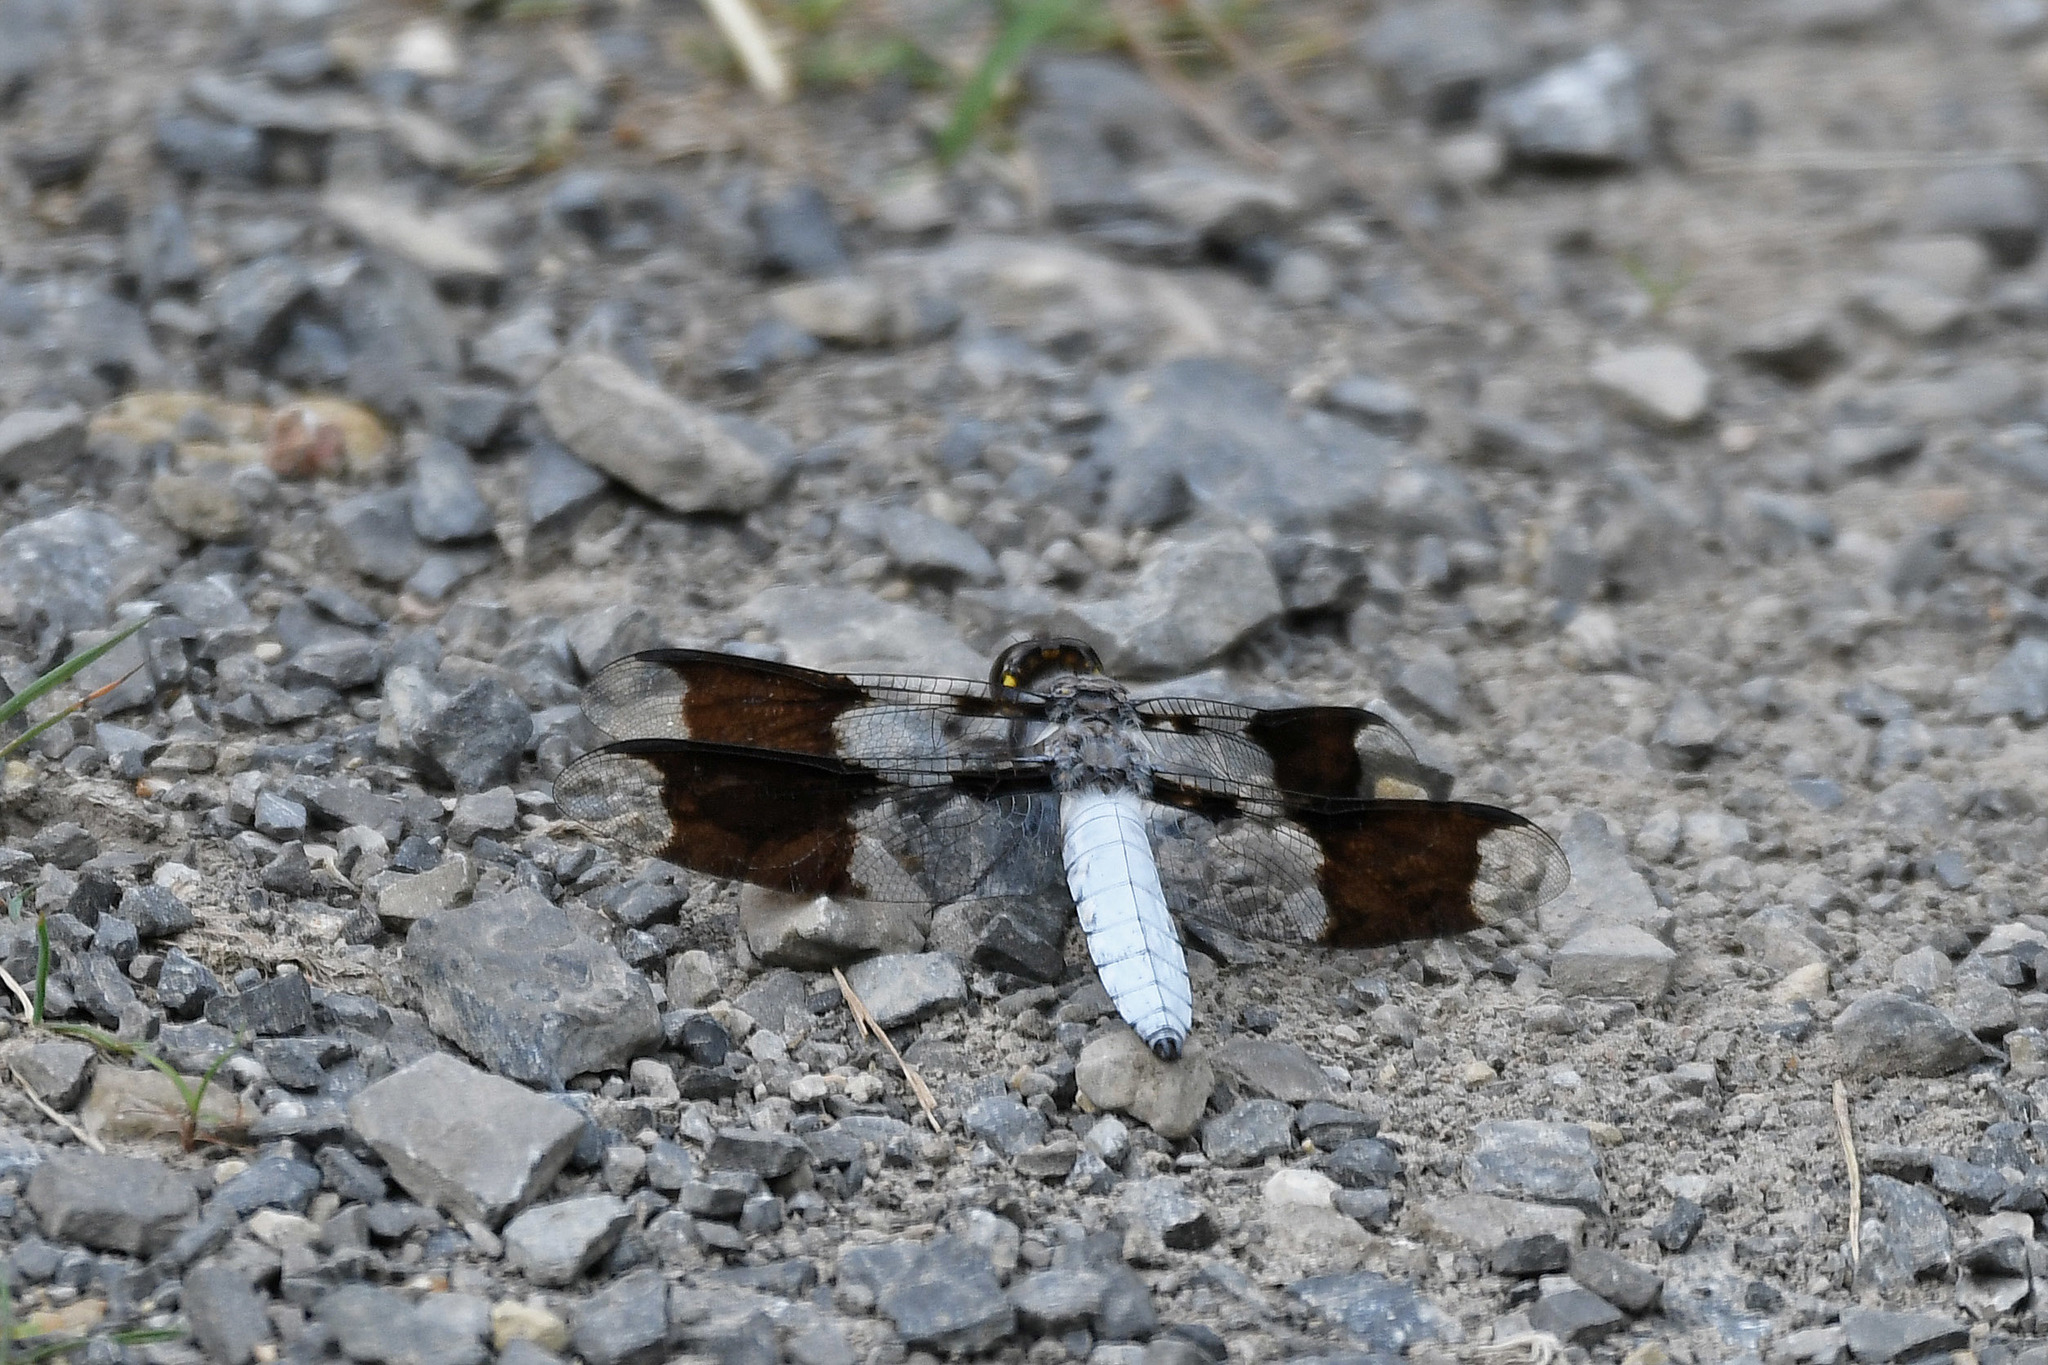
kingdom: Animalia
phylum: Arthropoda
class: Insecta
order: Odonata
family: Libellulidae
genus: Plathemis
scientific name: Plathemis lydia
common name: Common whitetail
